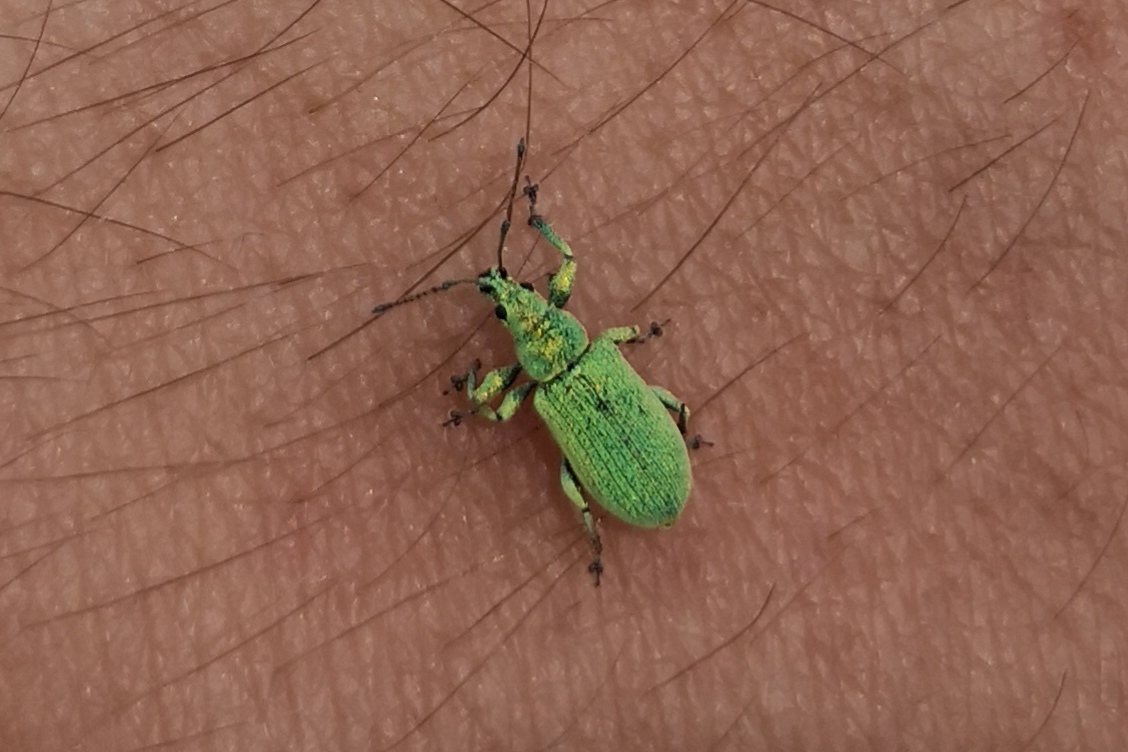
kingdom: Animalia
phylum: Arthropoda
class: Insecta
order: Coleoptera
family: Curculionidae
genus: Phyllobius
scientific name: Phyllobius maculicornis
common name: Green leaf weevil
